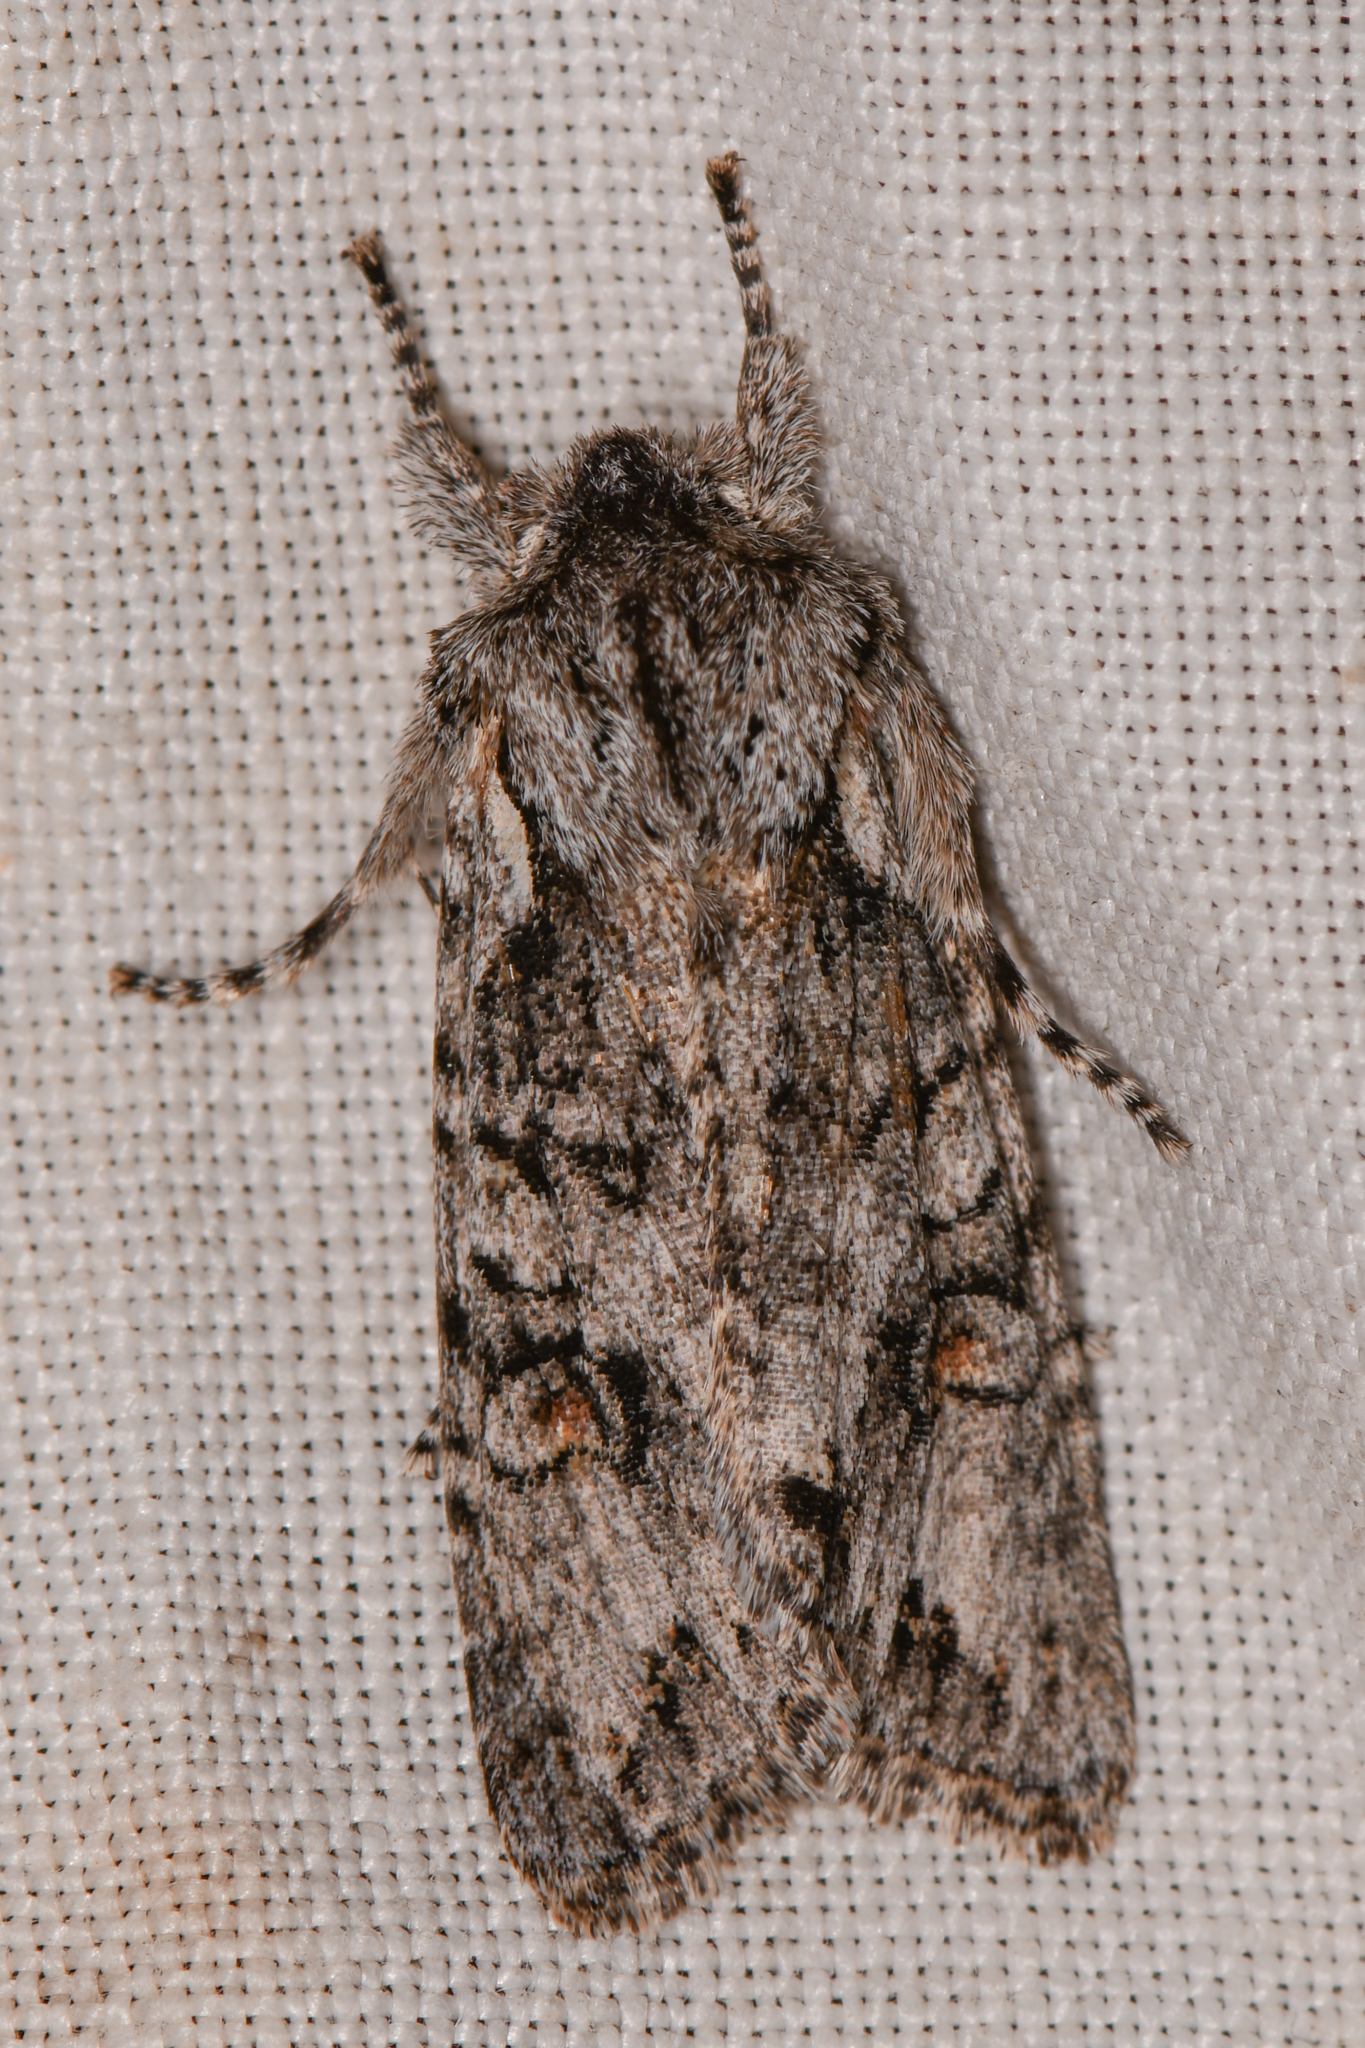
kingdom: Animalia
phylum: Arthropoda
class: Insecta
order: Lepidoptera
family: Noctuidae
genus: Egira
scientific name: Egira hiemalis
